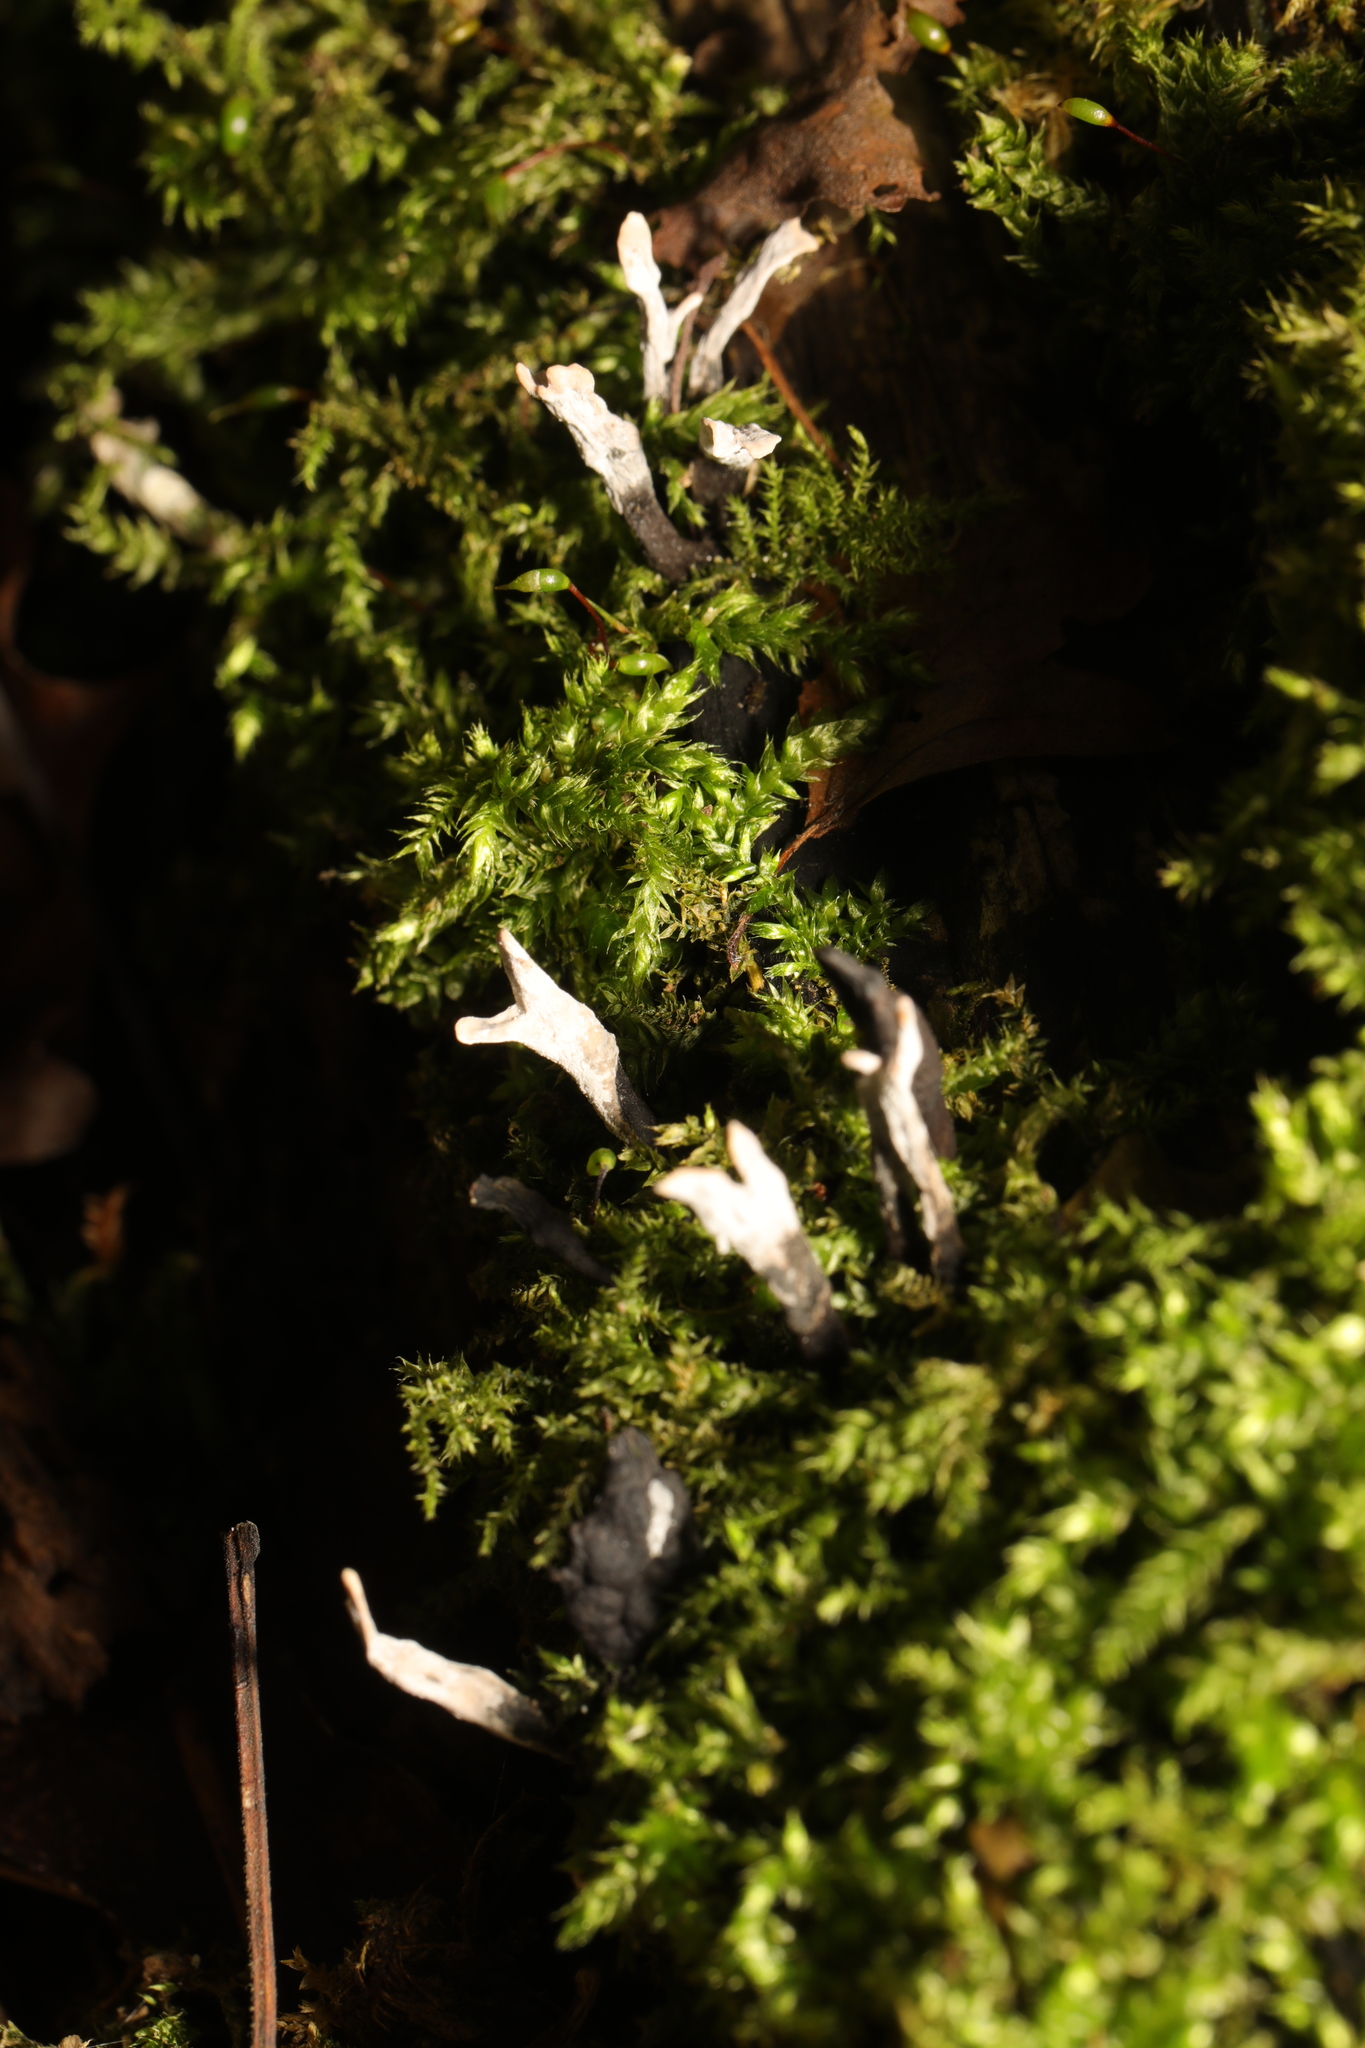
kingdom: Fungi
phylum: Ascomycota
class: Sordariomycetes
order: Xylariales
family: Xylariaceae
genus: Xylaria
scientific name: Xylaria hypoxylon
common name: Candle-snuff fungus
